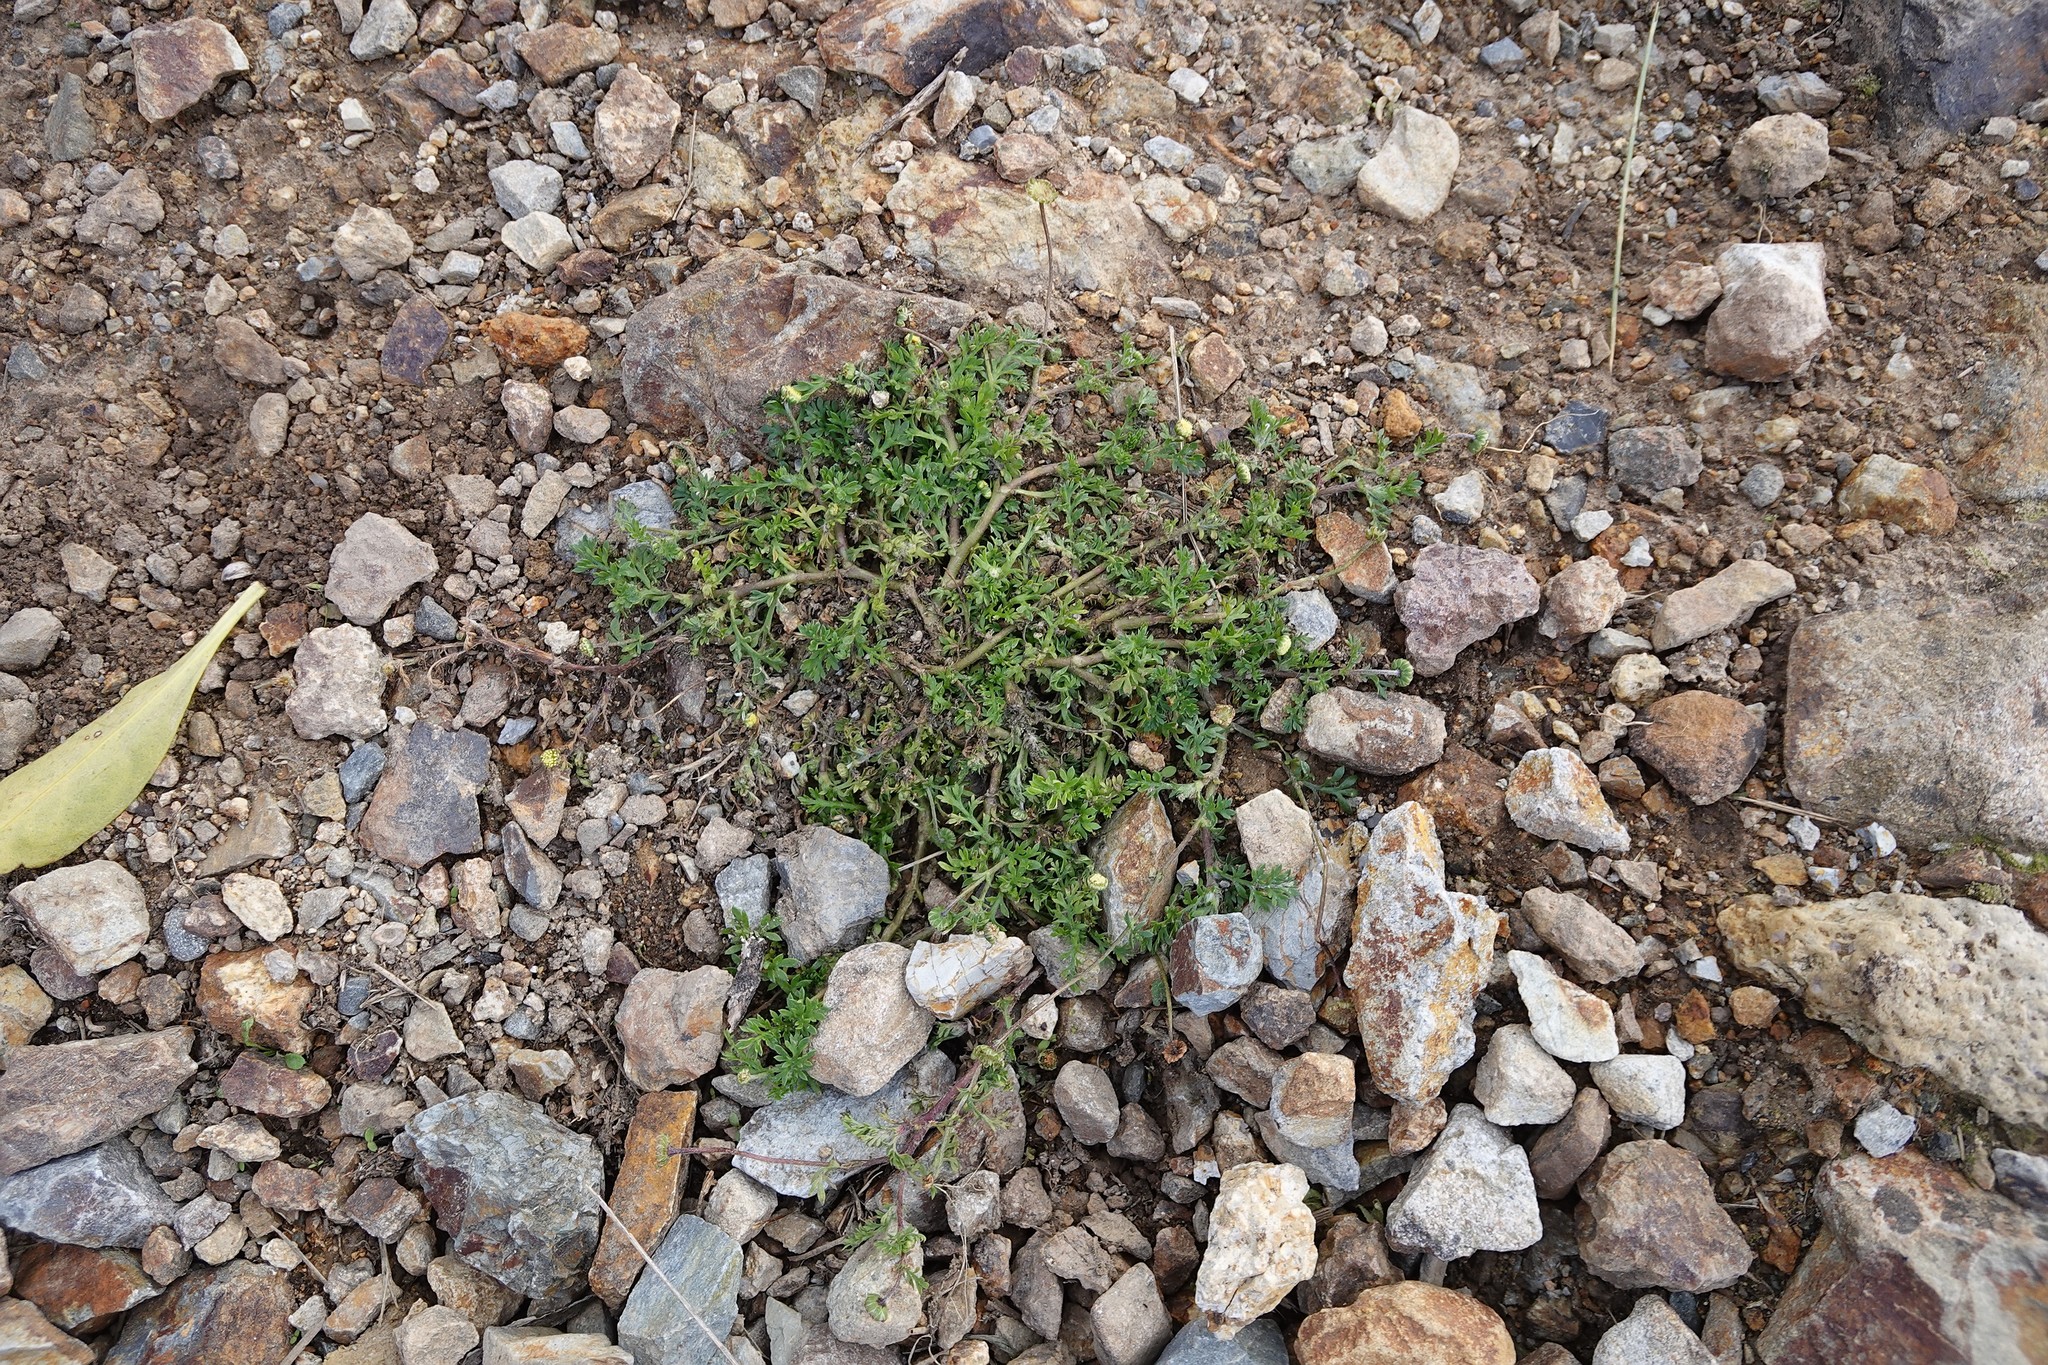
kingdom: Plantae
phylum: Tracheophyta
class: Magnoliopsida
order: Asterales
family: Asteraceae
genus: Cotula
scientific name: Cotula australis
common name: Australian waterbuttons
